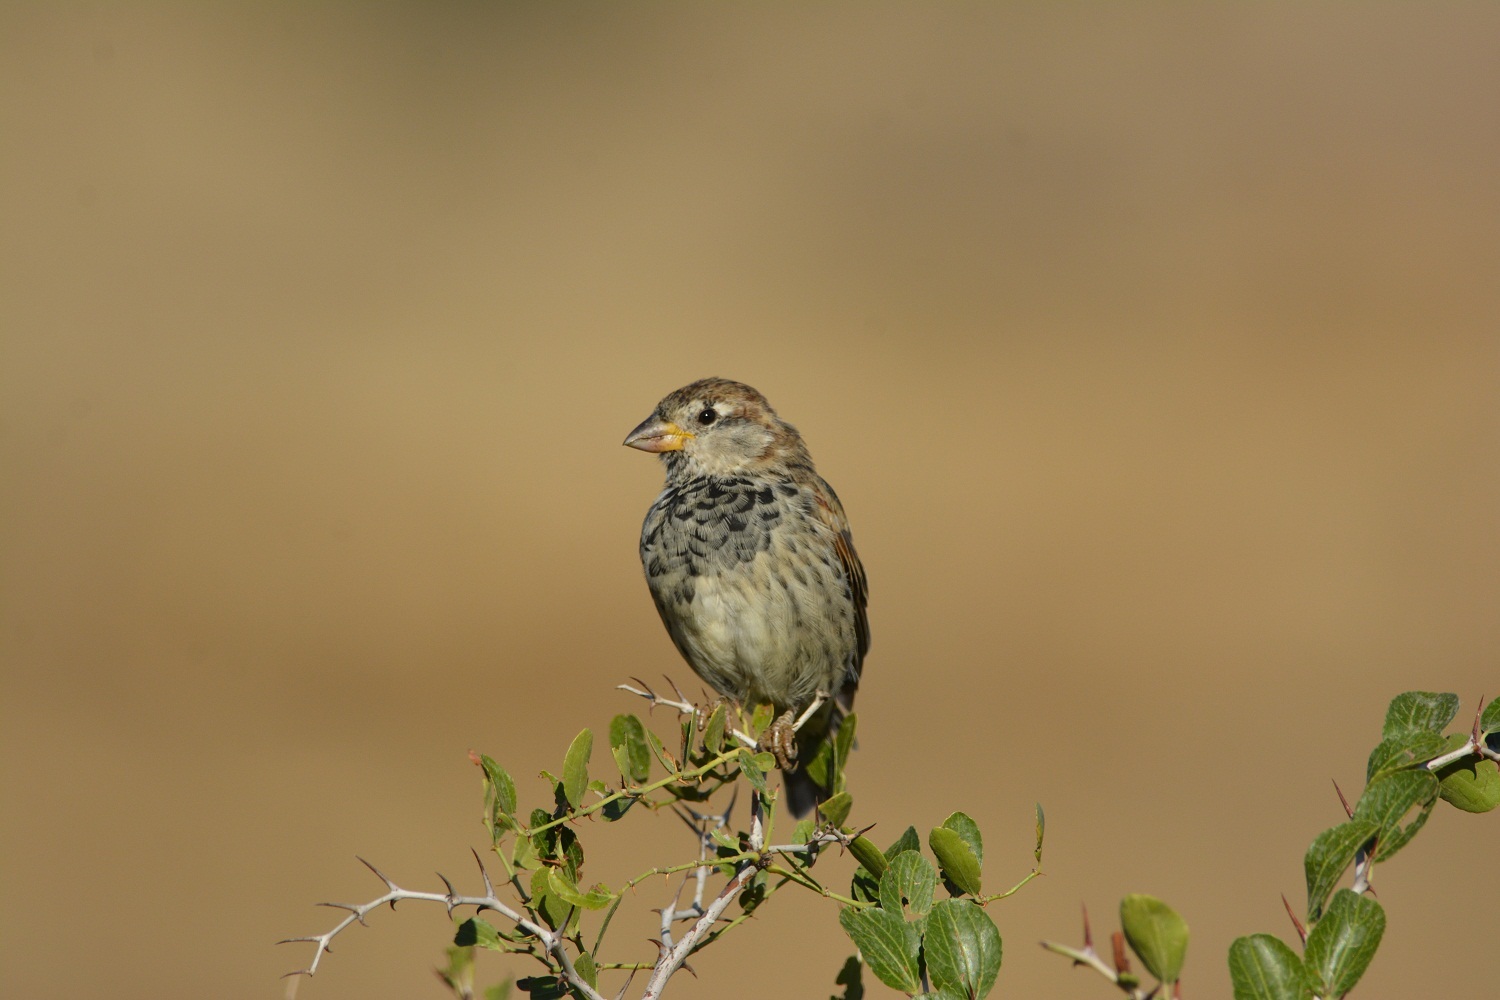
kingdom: Animalia
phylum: Chordata
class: Aves
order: Passeriformes
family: Passeridae
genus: Passer
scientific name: Passer hispaniolensis
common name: Spanish sparrow
